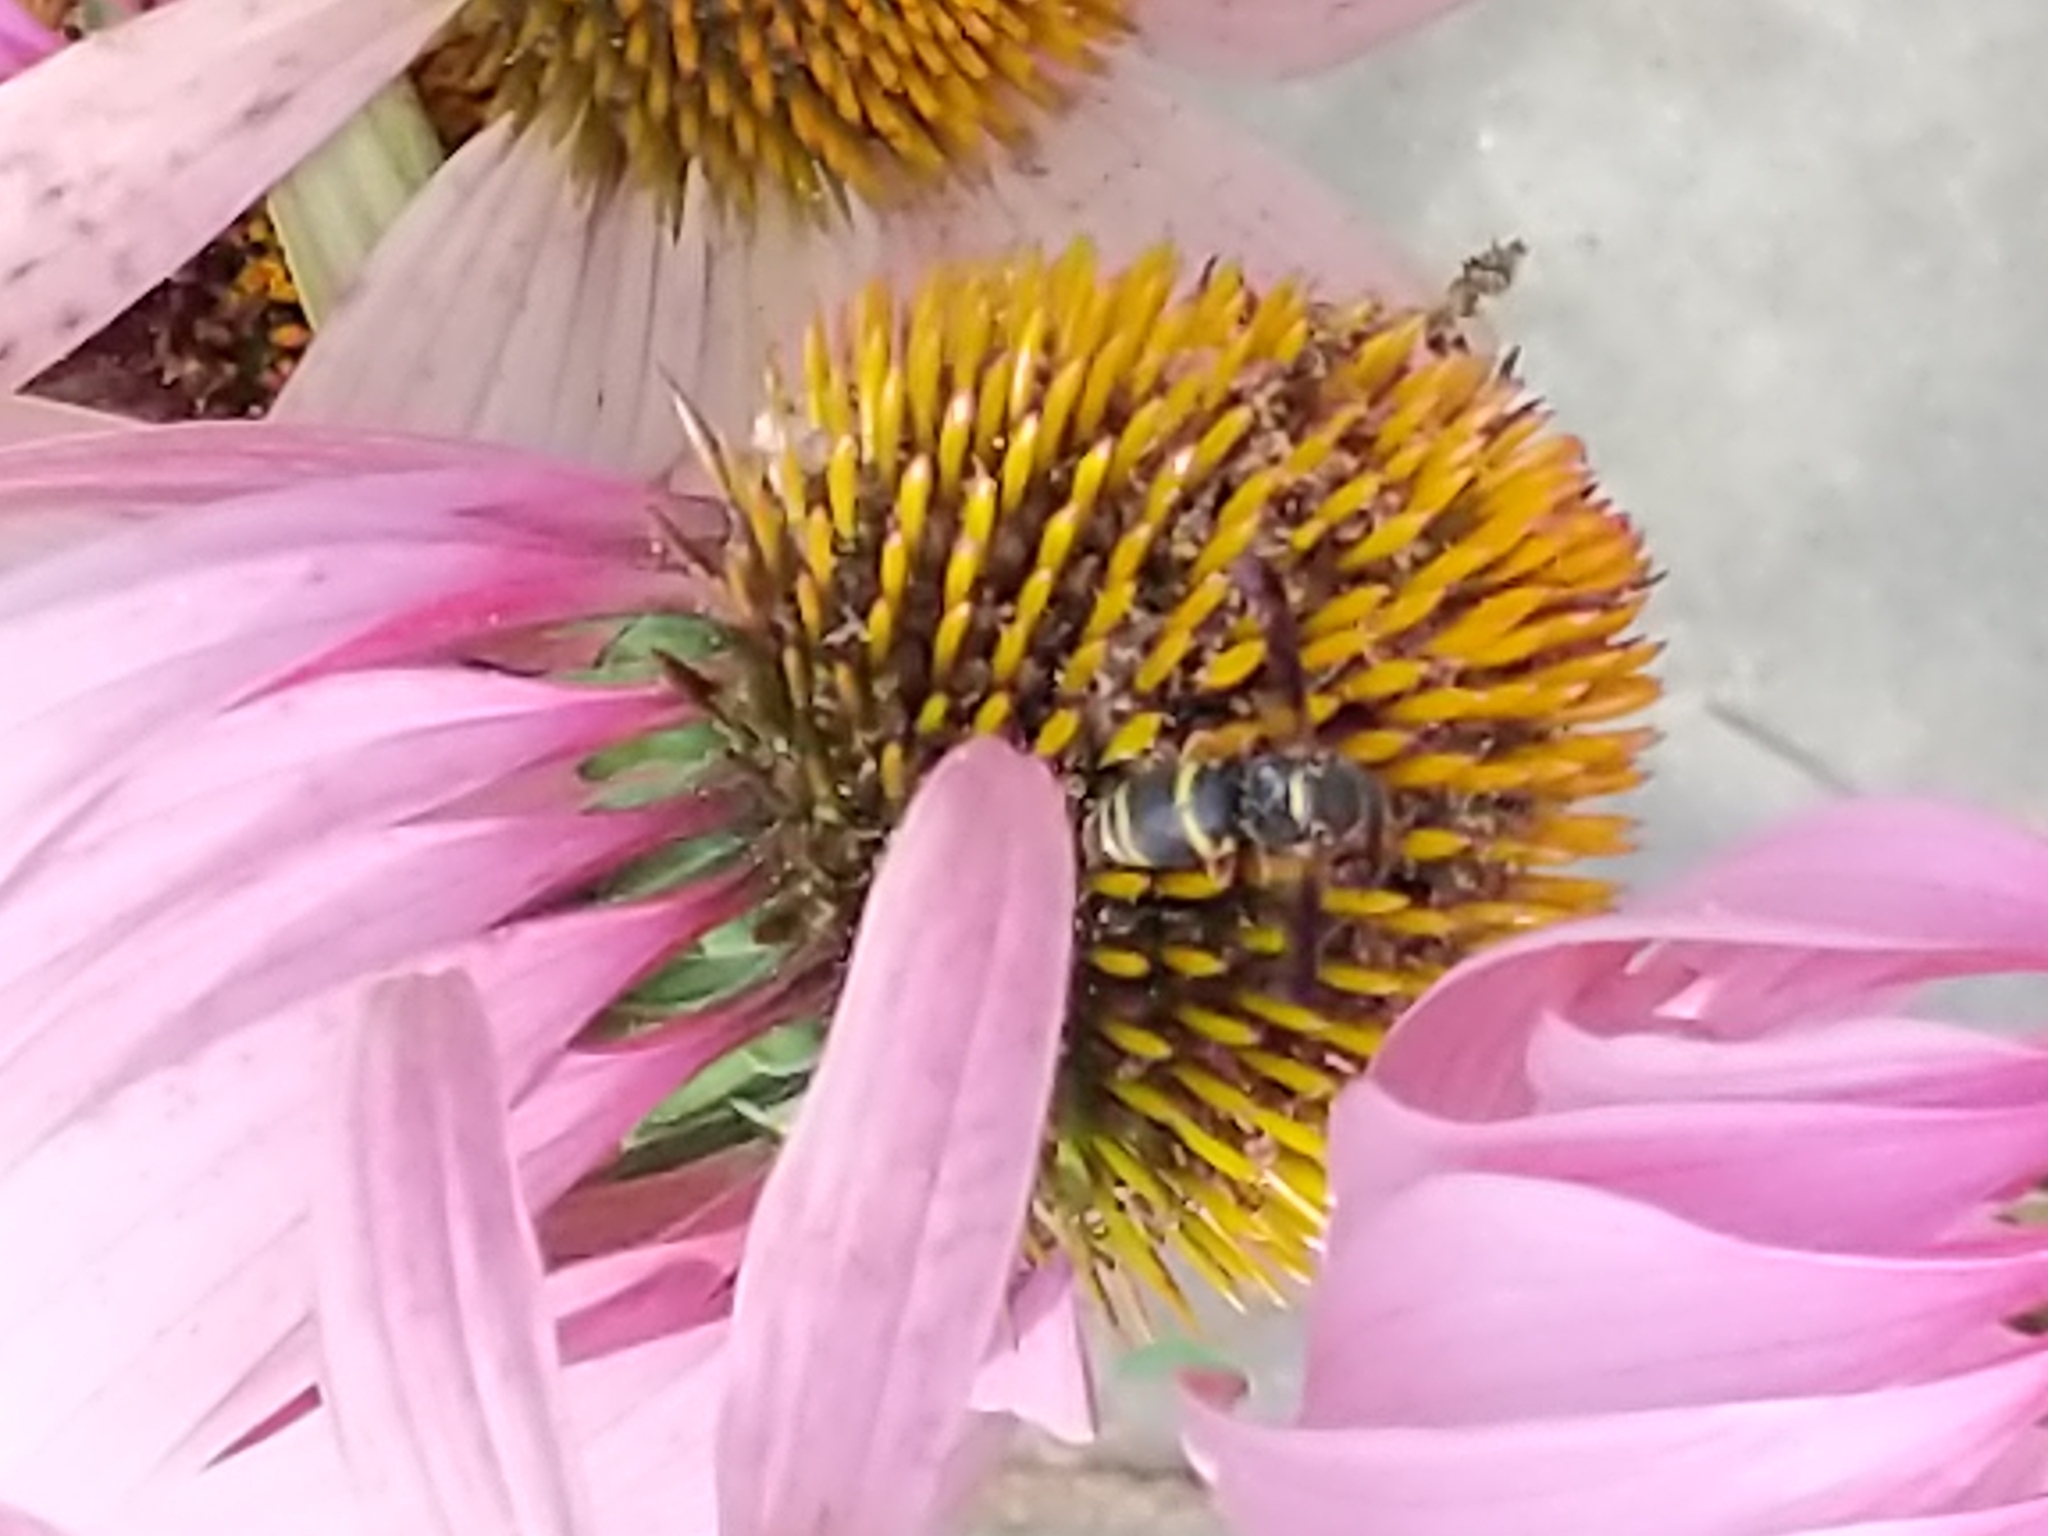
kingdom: Animalia
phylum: Arthropoda
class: Insecta
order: Hymenoptera
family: Eumenidae
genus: Euodynerus
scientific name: Euodynerus hidalgo
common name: Wasp
